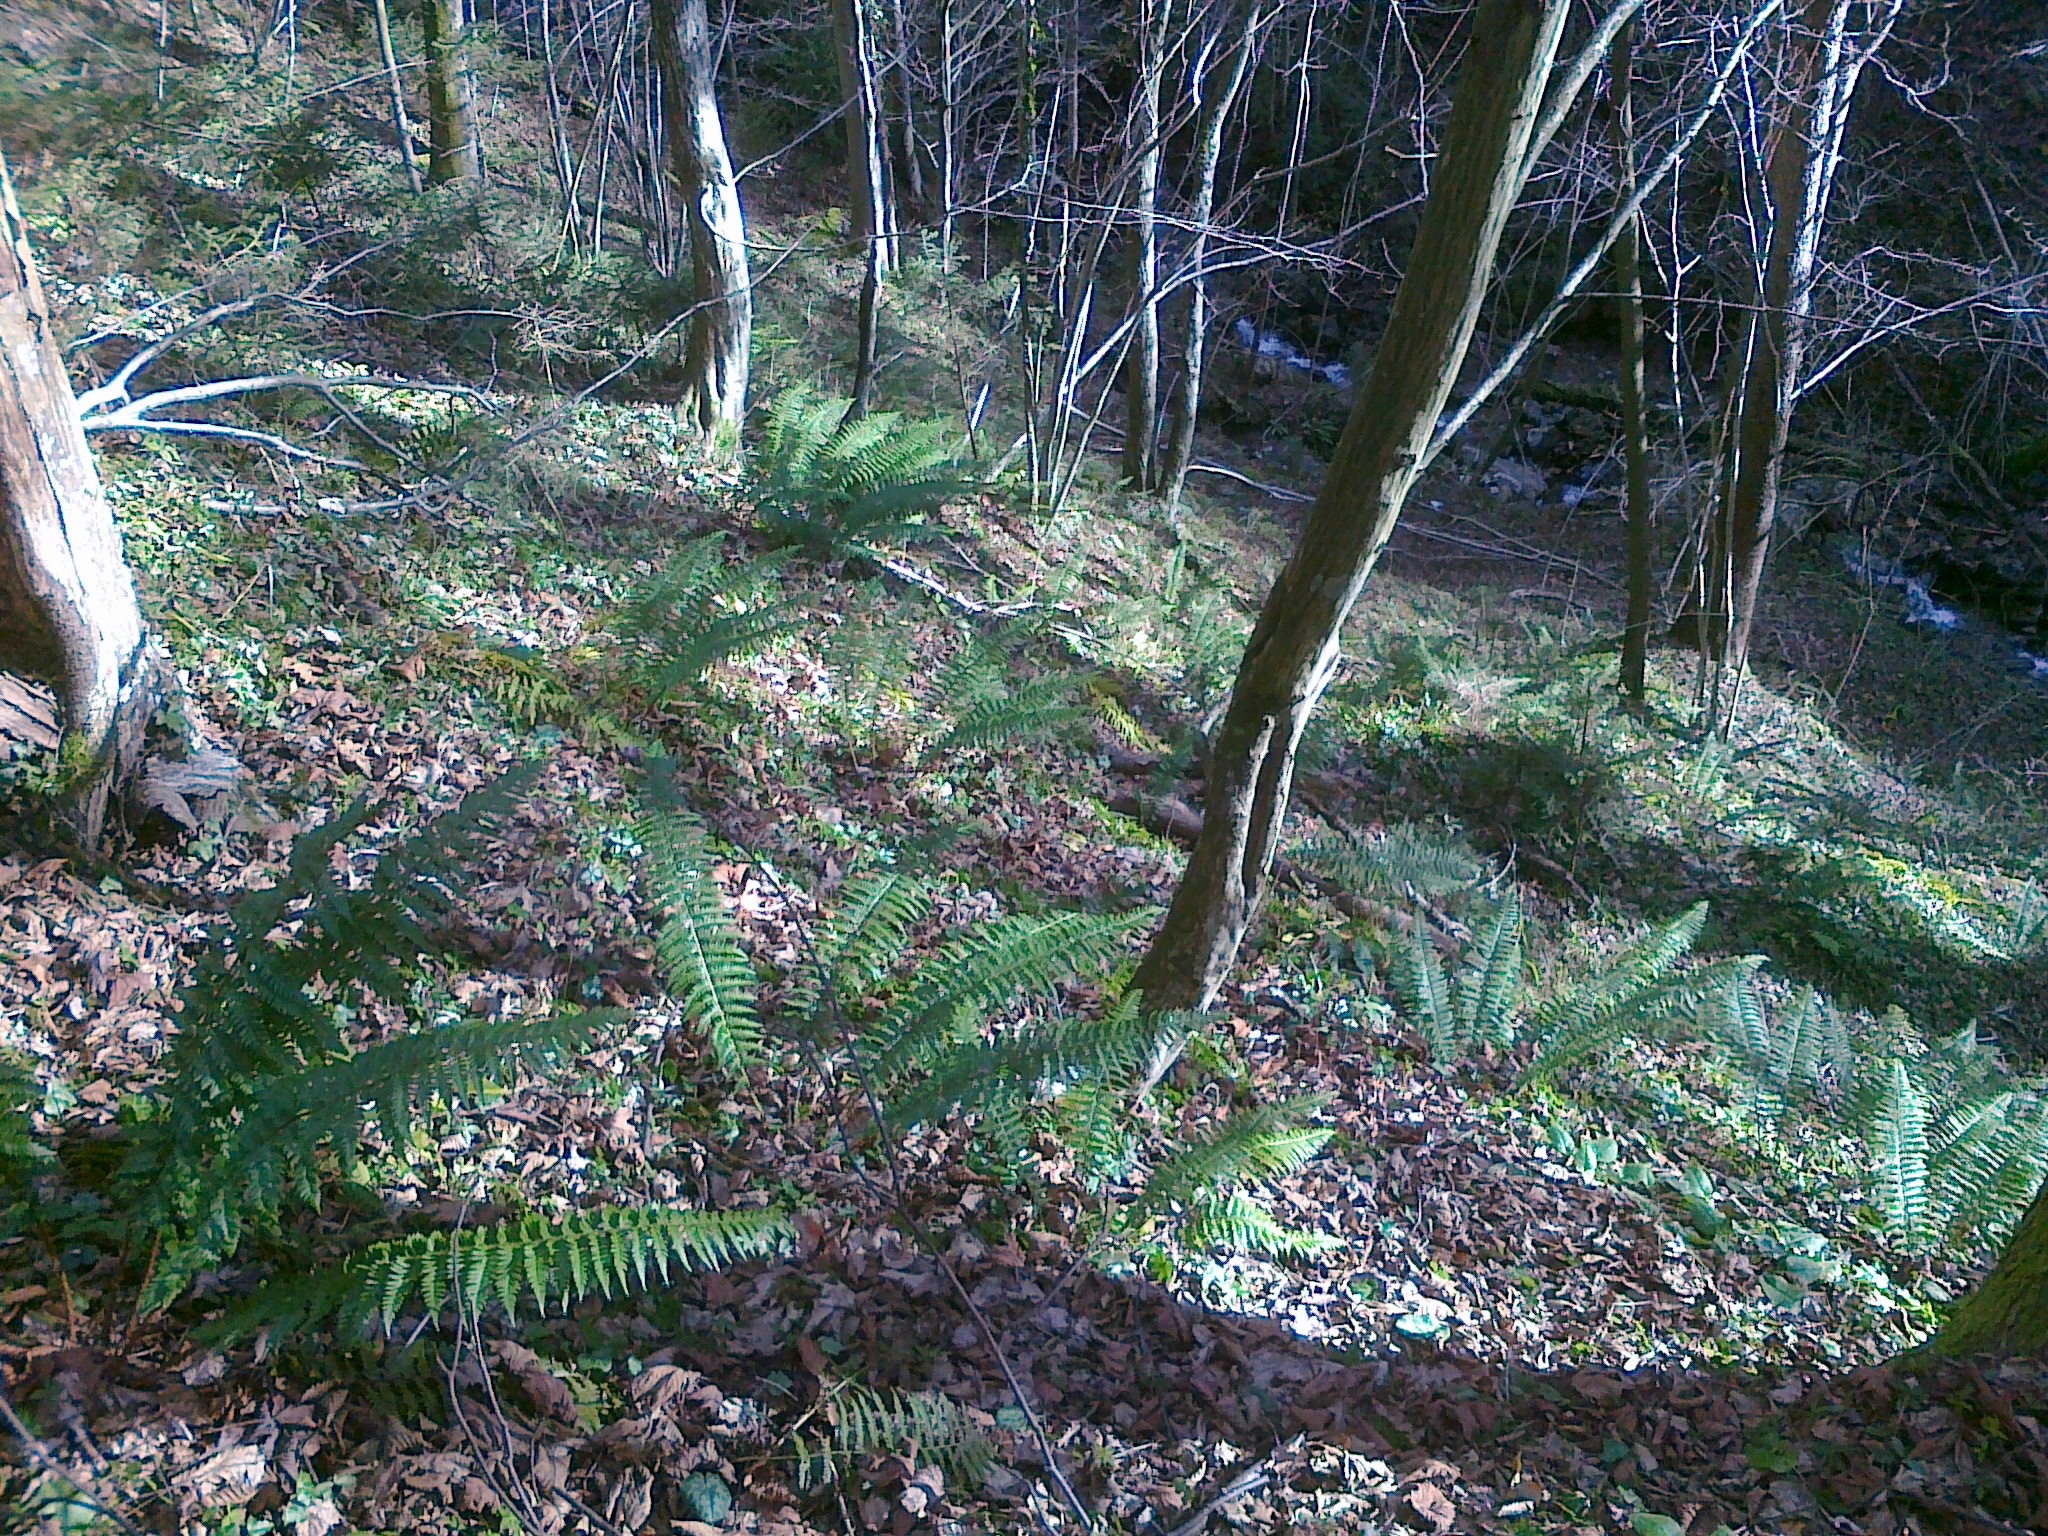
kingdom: Plantae
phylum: Tracheophyta
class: Polypodiopsida
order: Polypodiales
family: Dryopteridaceae
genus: Polystichum
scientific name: Polystichum aculeatum
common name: Hard shield-fern
